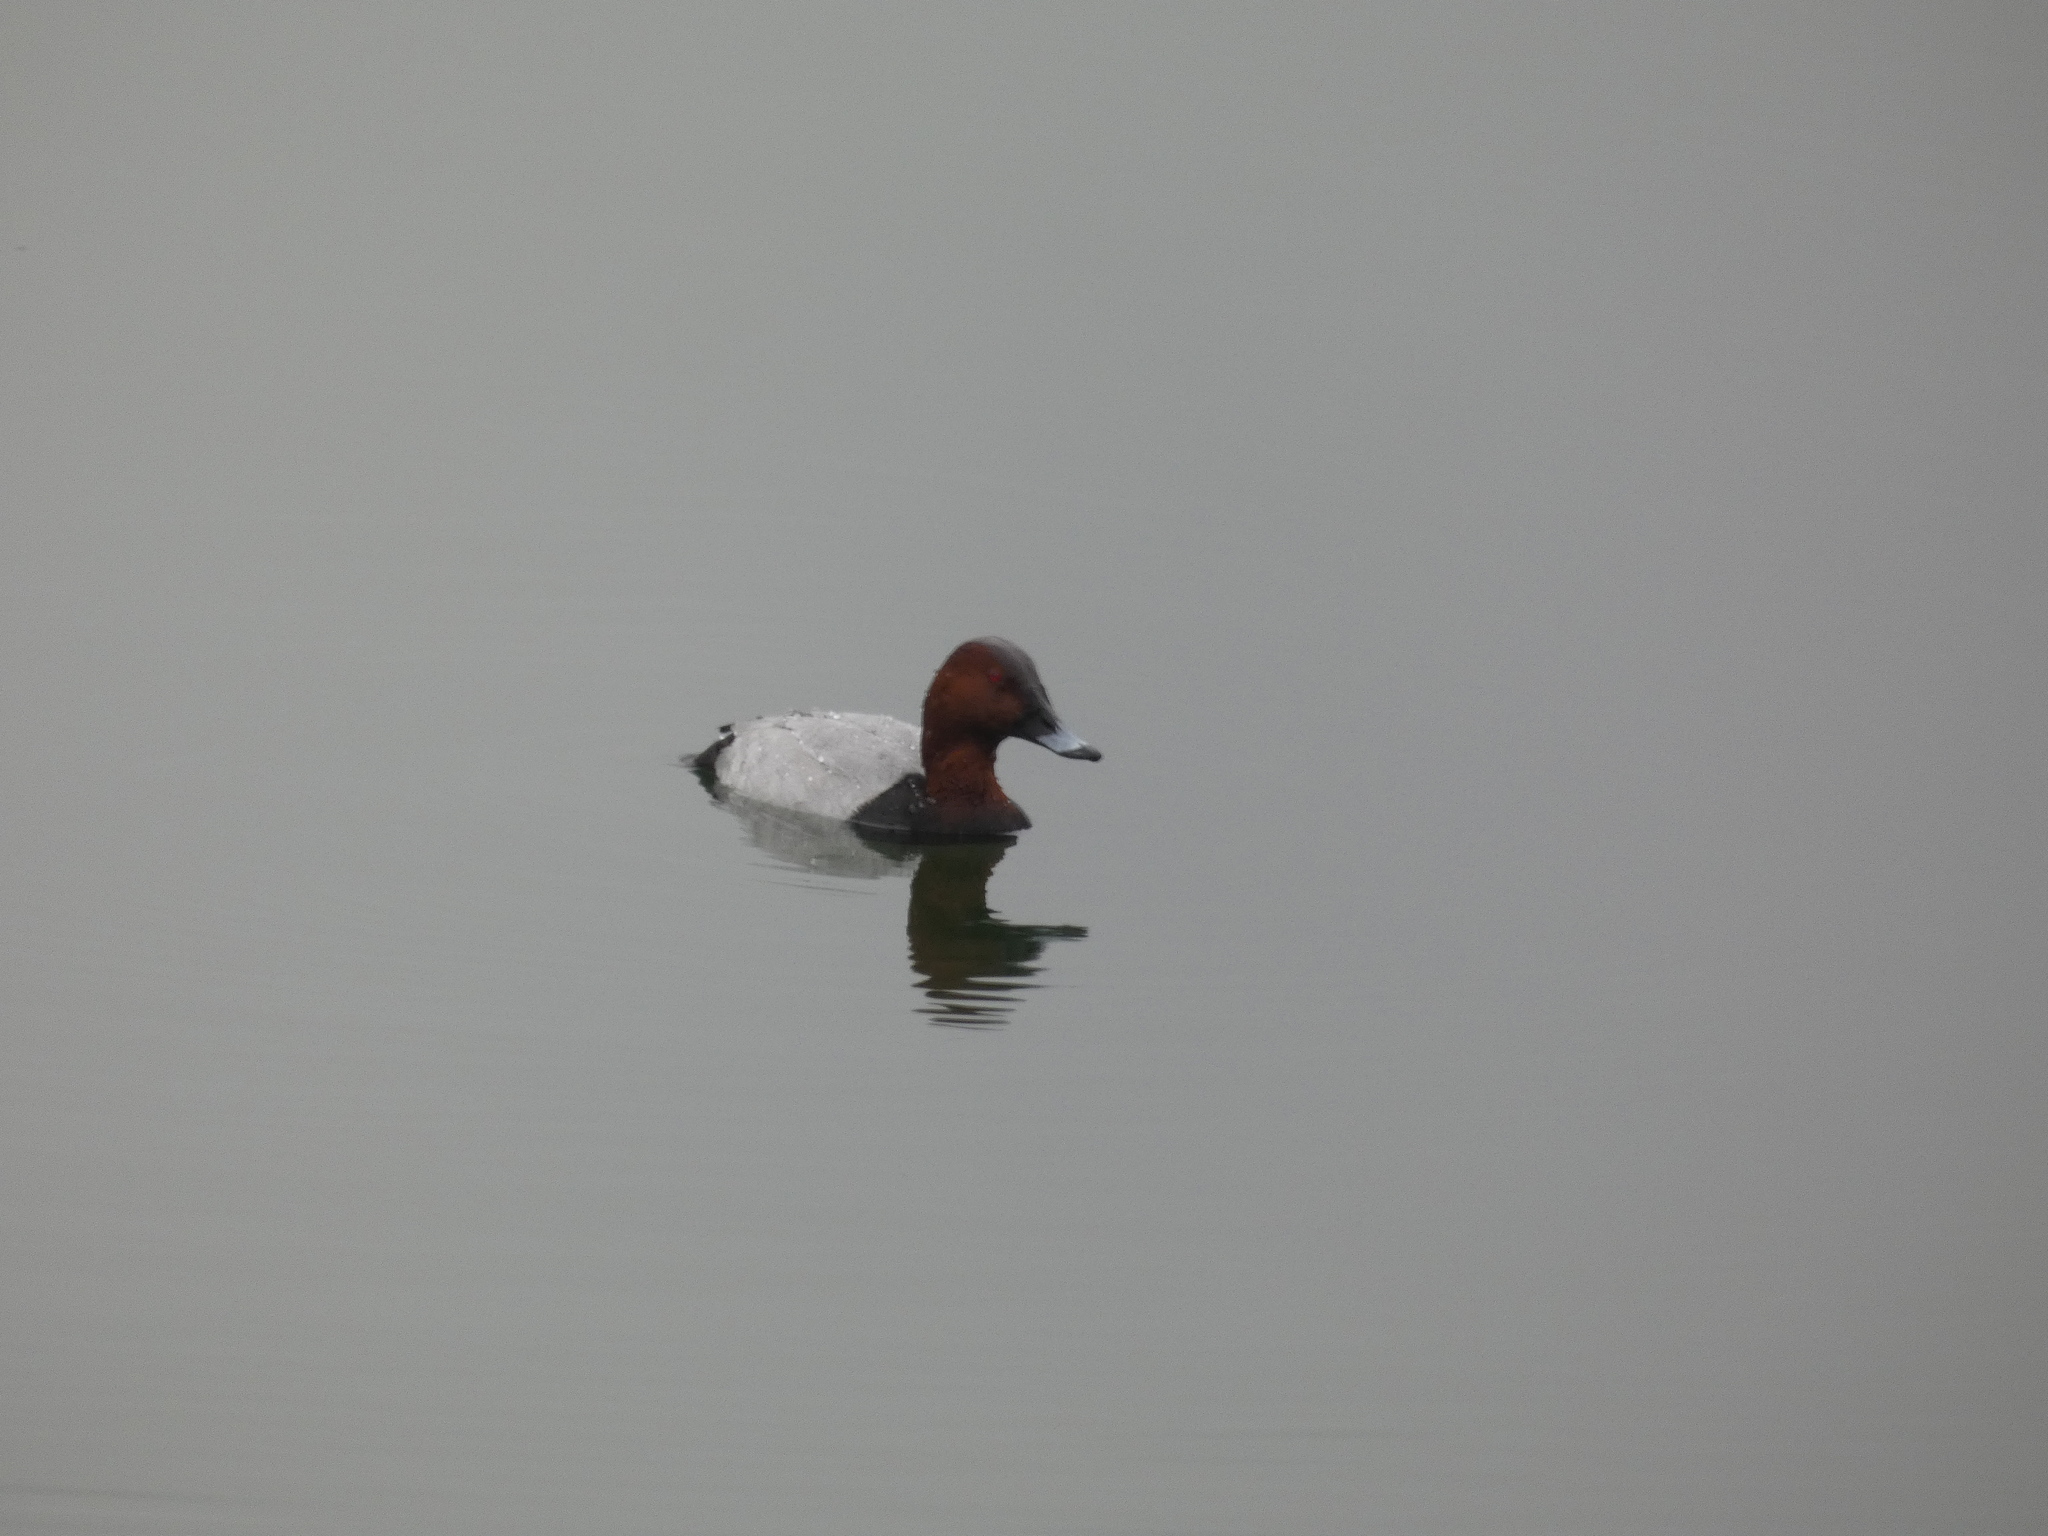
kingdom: Animalia
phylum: Chordata
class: Aves
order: Anseriformes
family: Anatidae
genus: Aythya
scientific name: Aythya ferina
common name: Common pochard
